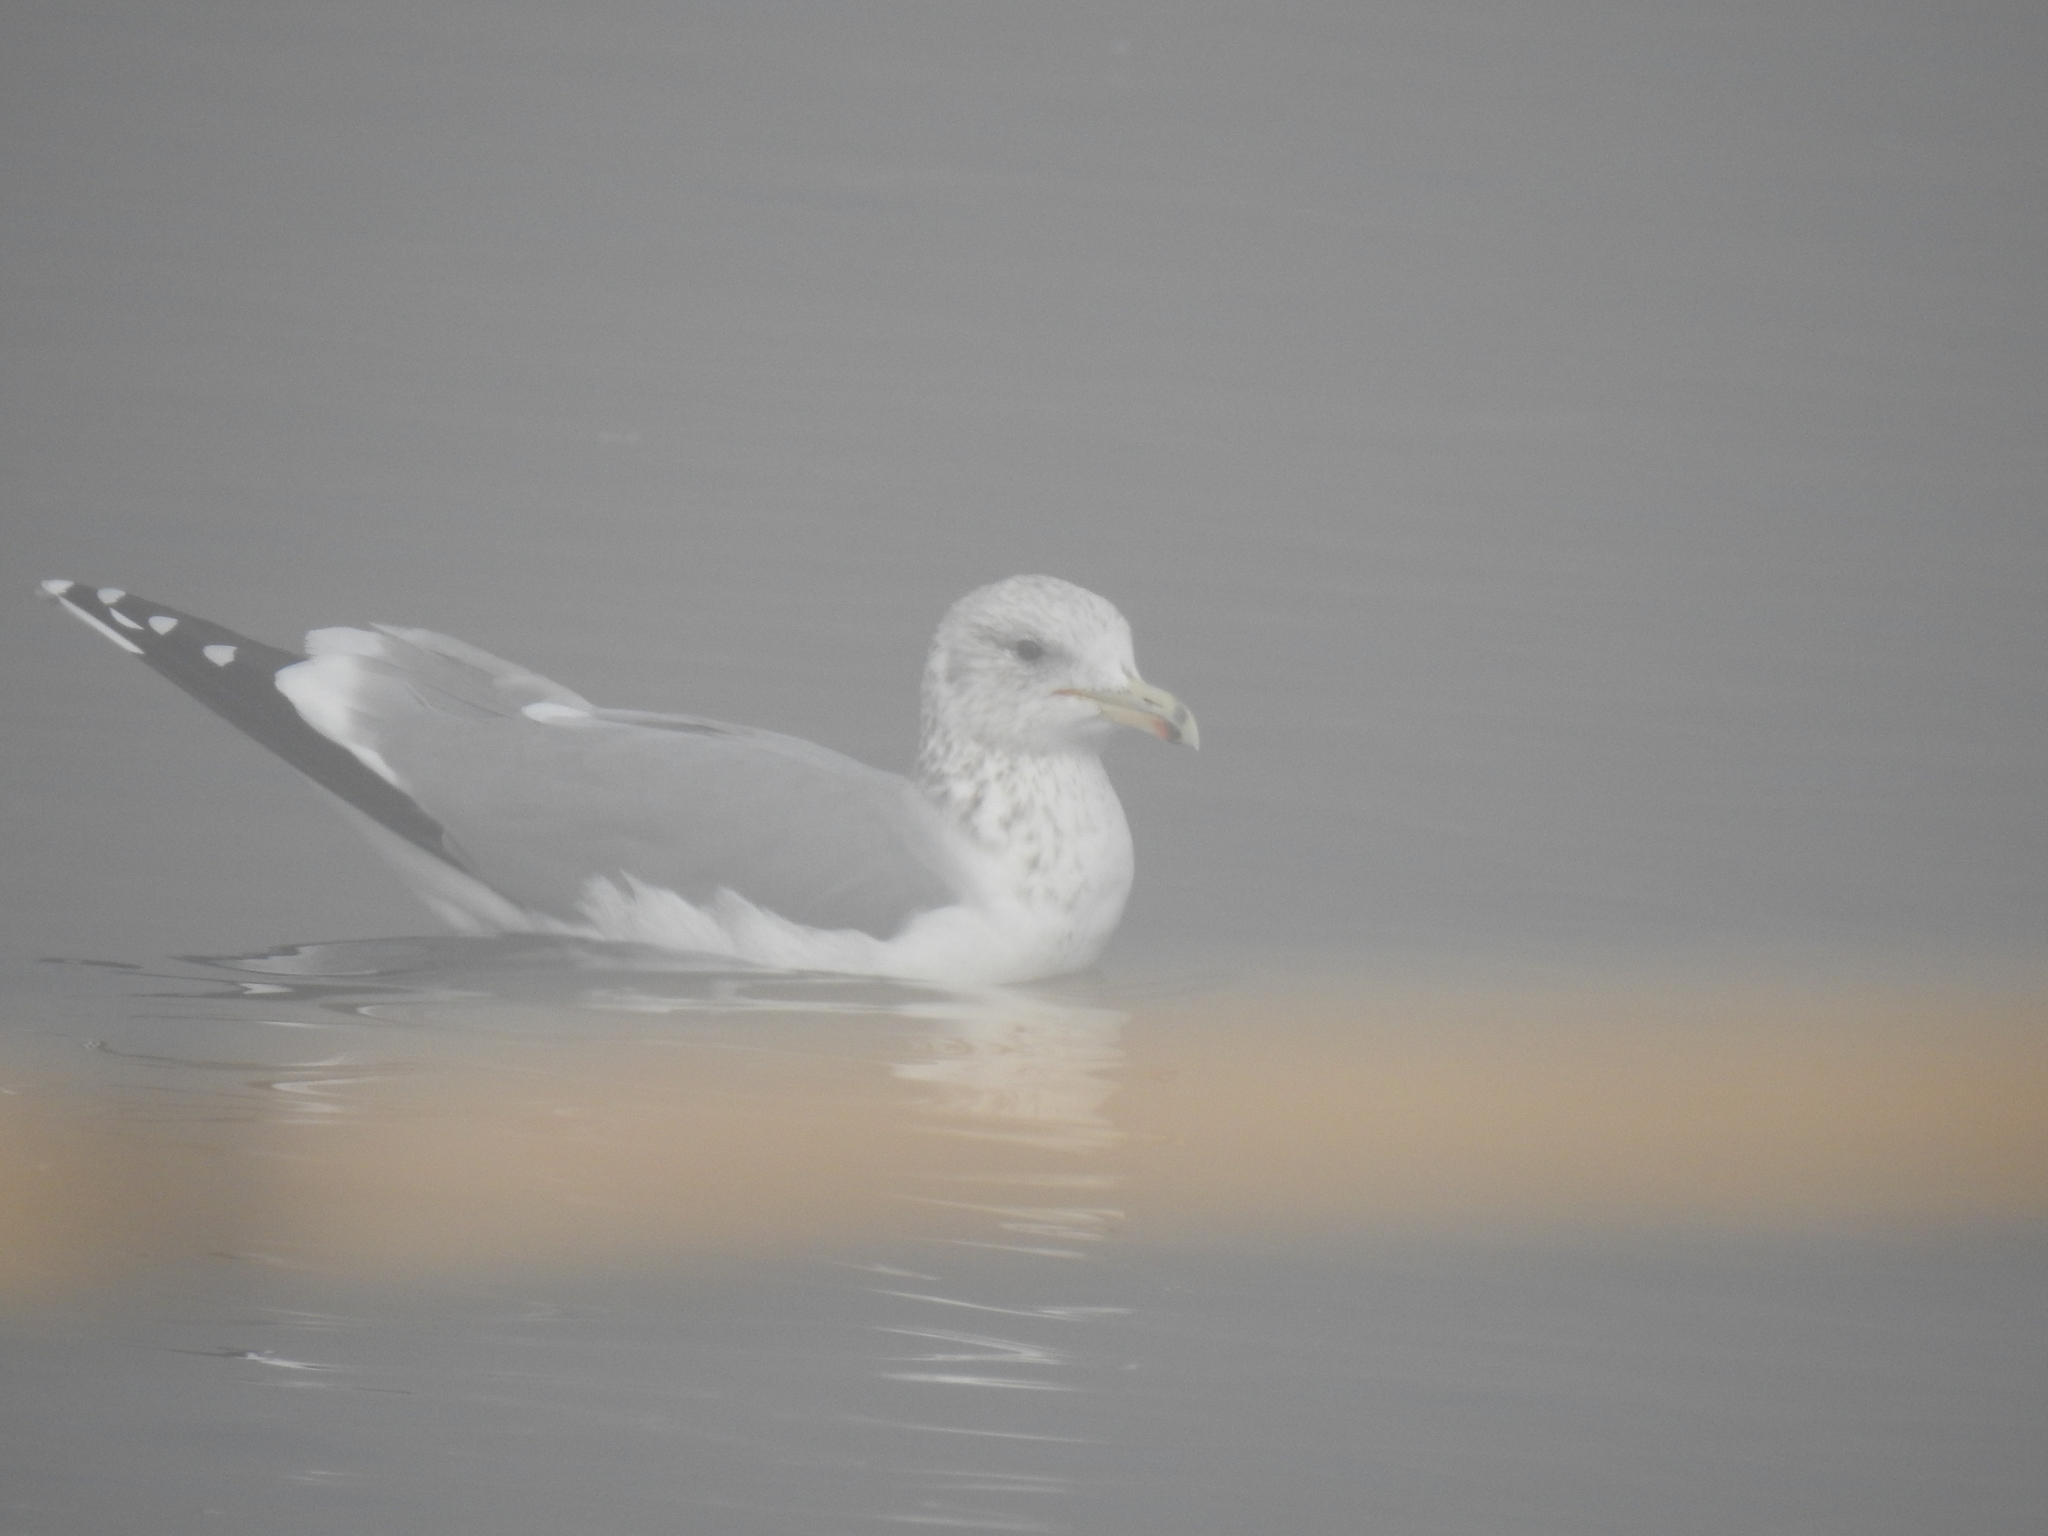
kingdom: Animalia
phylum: Chordata
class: Aves
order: Charadriiformes
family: Laridae
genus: Larus
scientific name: Larus californicus
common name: California gull
